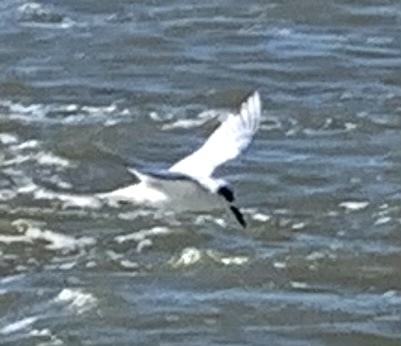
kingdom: Animalia
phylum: Chordata
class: Aves
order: Charadriiformes
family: Laridae
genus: Sterna
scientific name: Sterna forsteri
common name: Forster's tern
